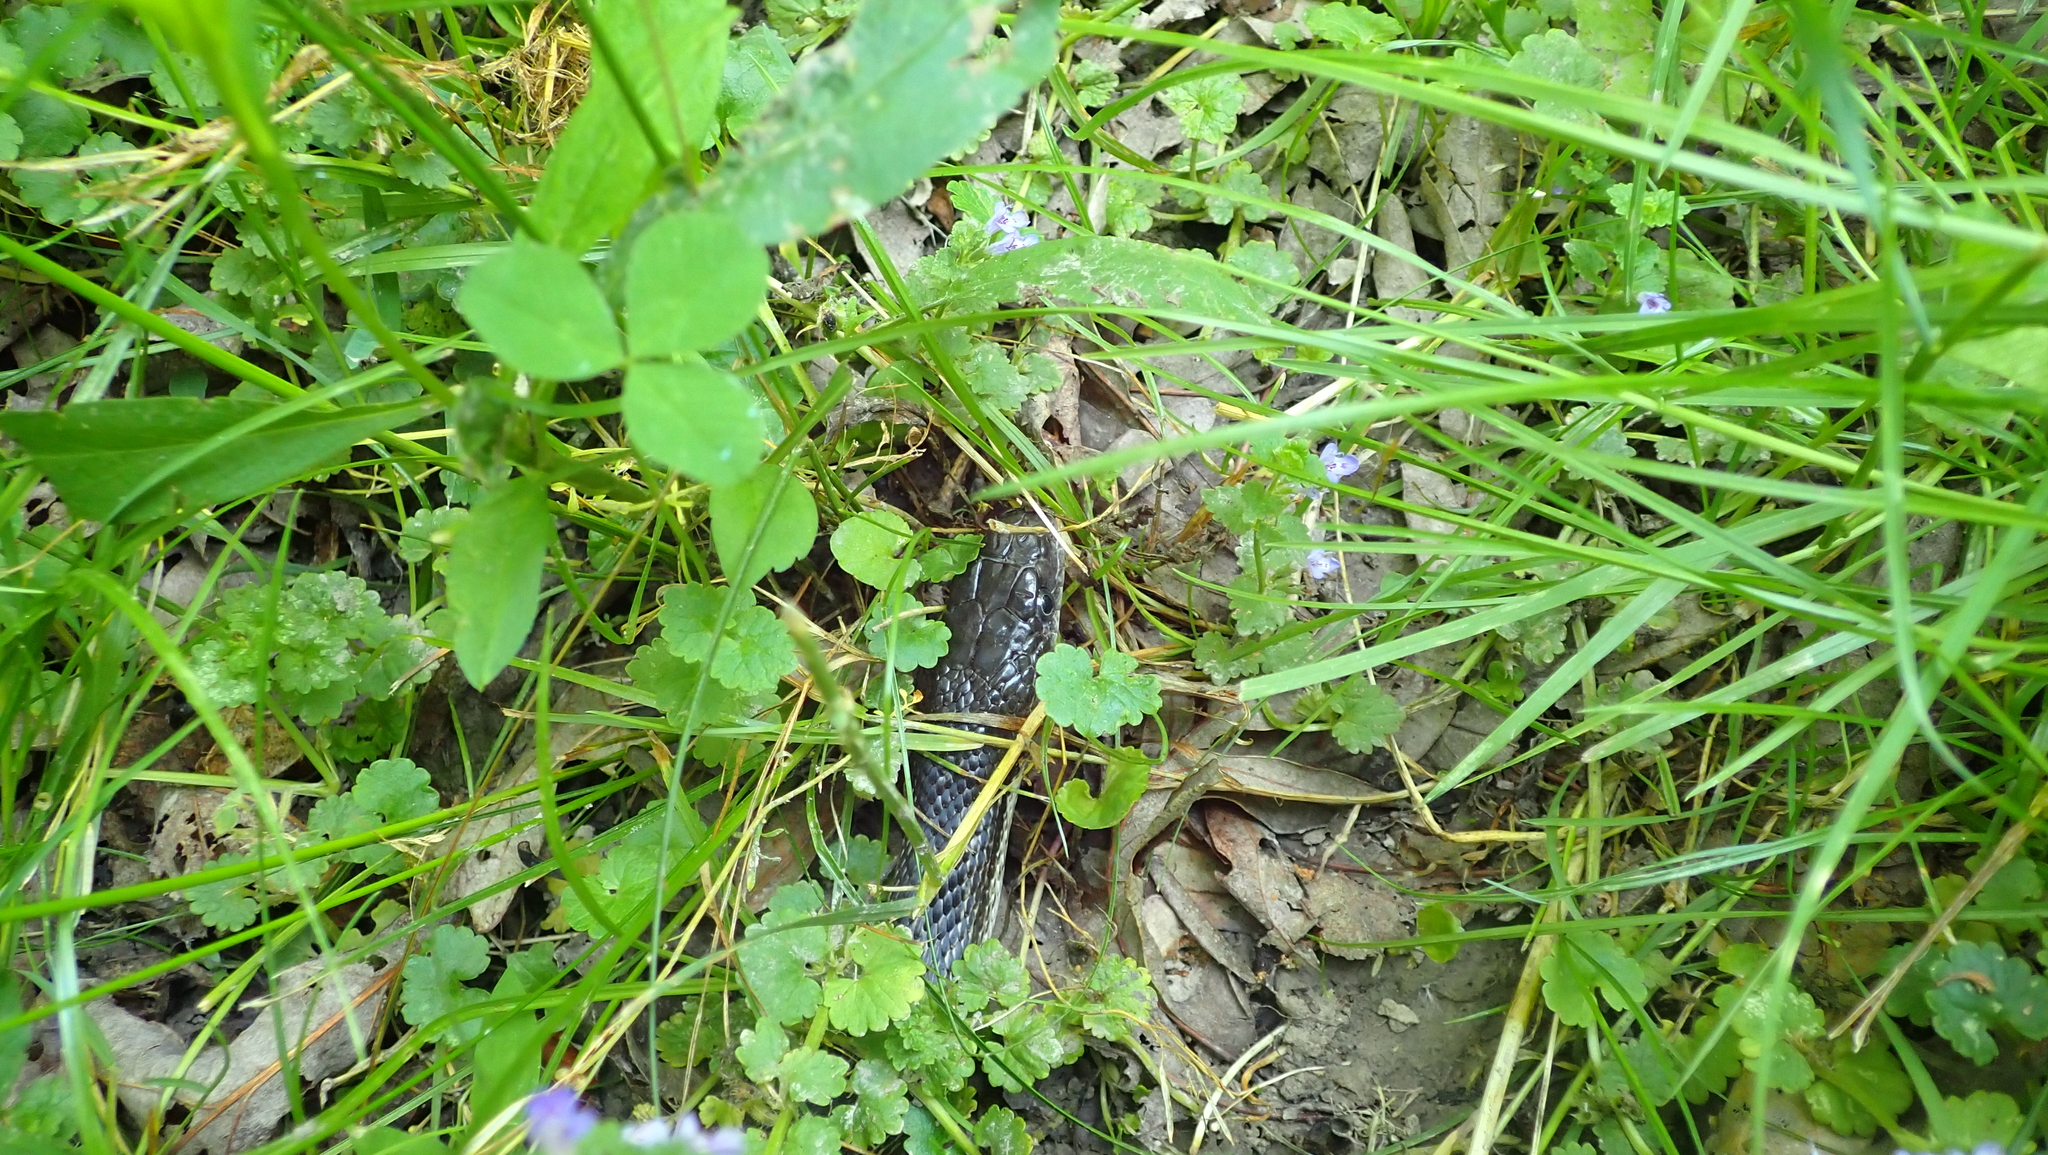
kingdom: Animalia
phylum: Chordata
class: Squamata
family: Colubridae
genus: Pantherophis
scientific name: Pantherophis spiloides
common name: Gray rat snake
